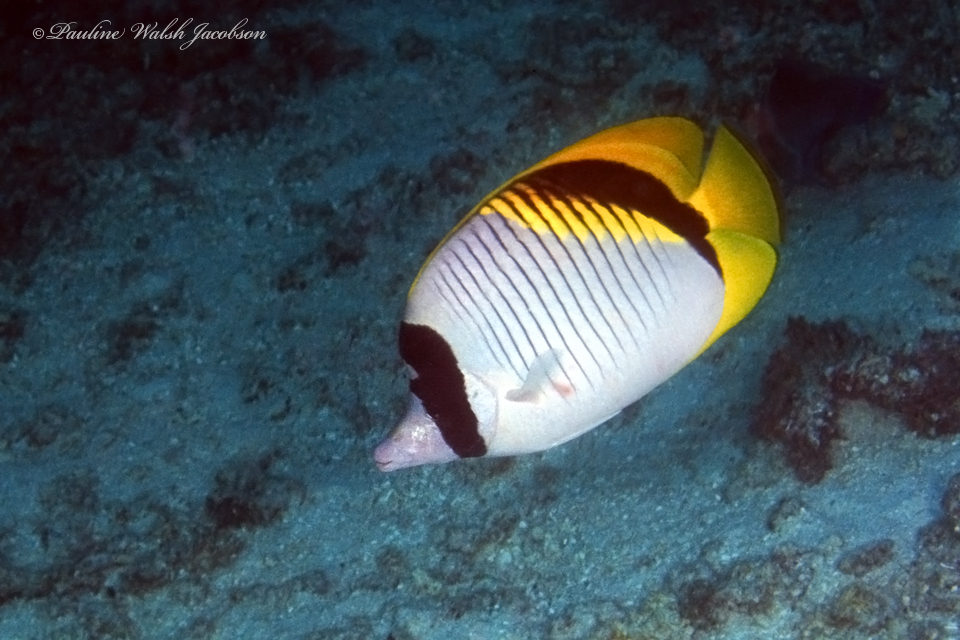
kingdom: Animalia
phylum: Chordata
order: Perciformes
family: Chaetodontidae
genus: Chaetodon
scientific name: Chaetodon lineolatus
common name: Lined butterflyfish
